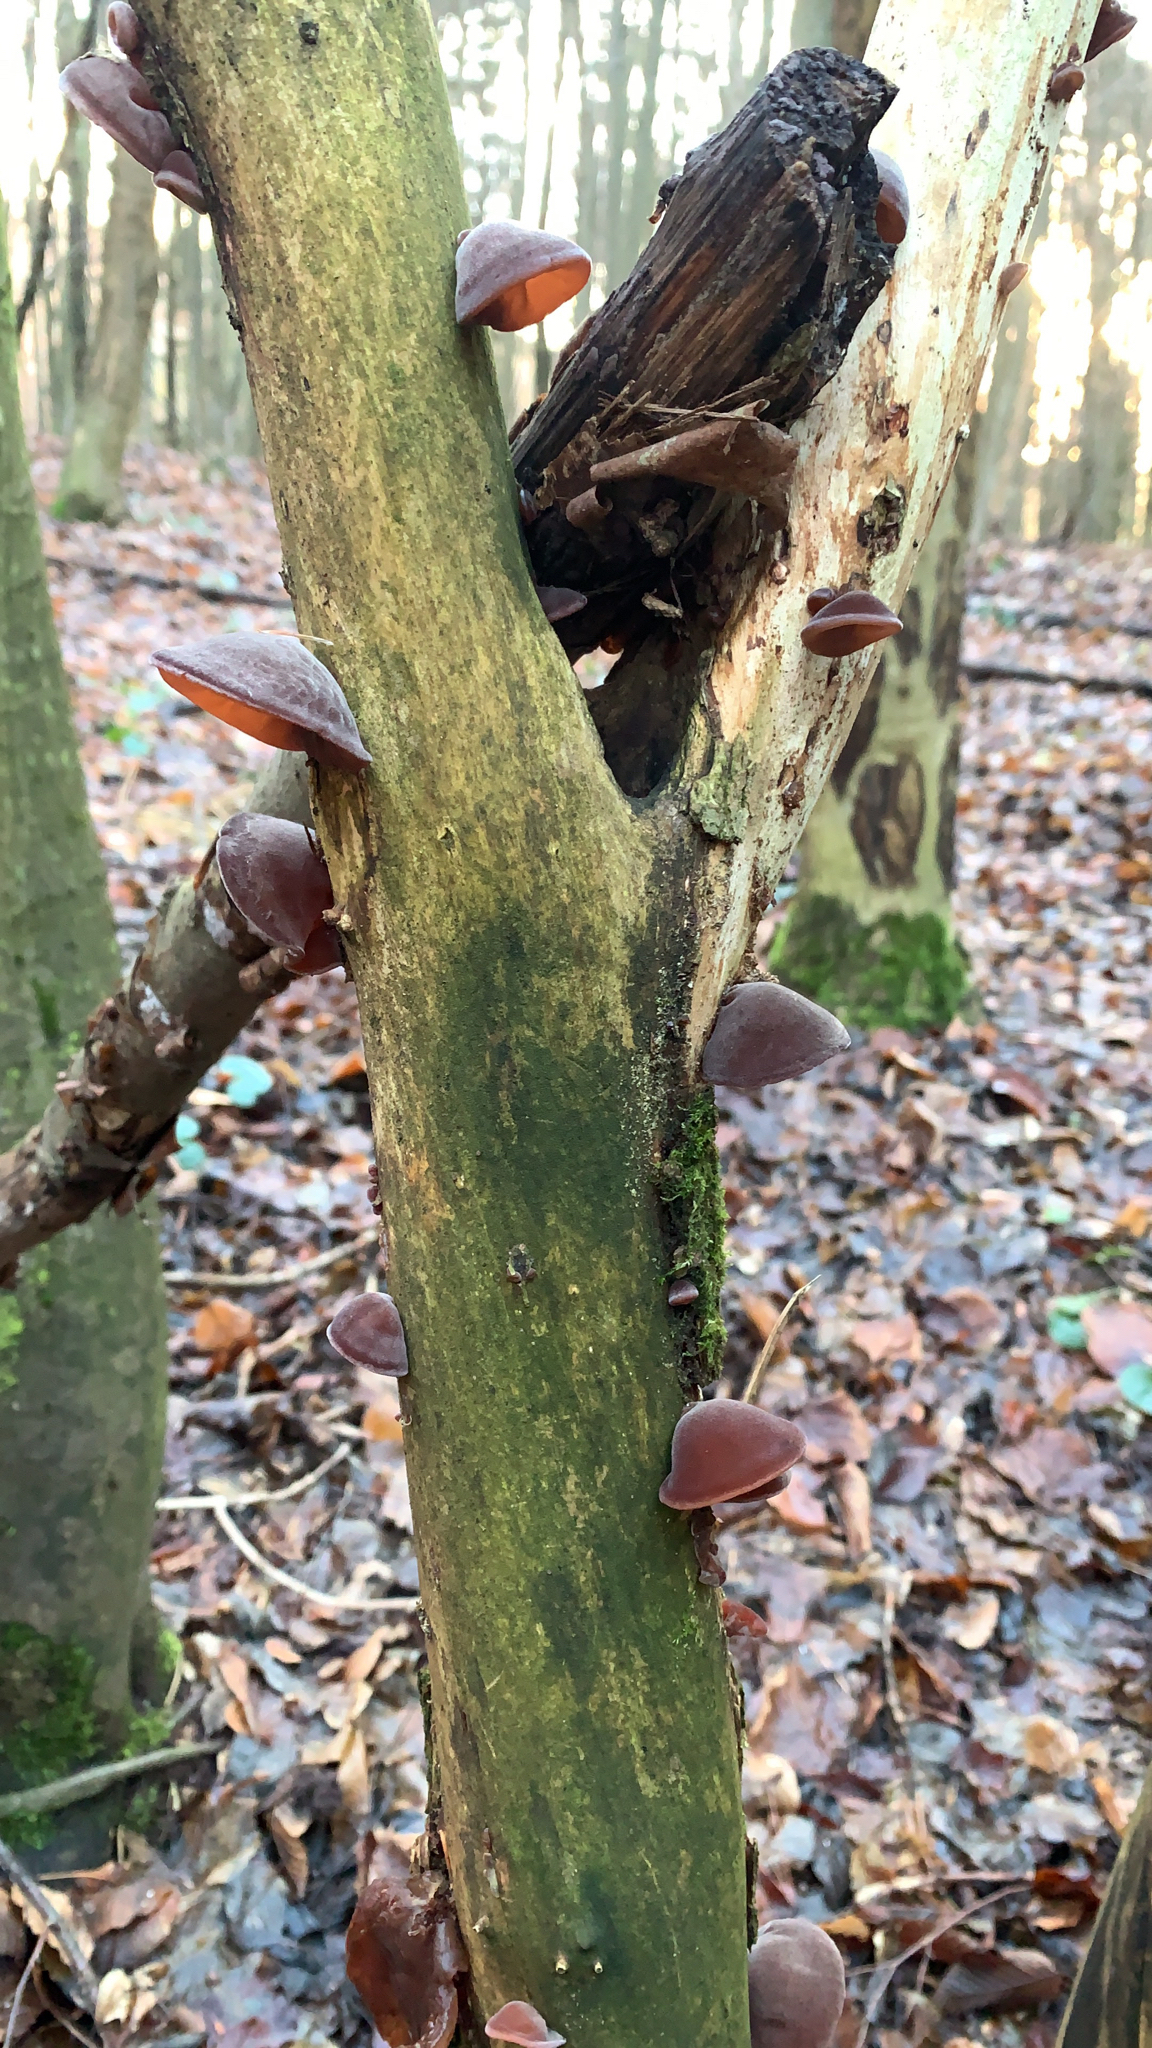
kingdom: Fungi
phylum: Basidiomycota
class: Agaricomycetes
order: Auriculariales
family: Auriculariaceae
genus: Auricularia
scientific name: Auricularia cornea
